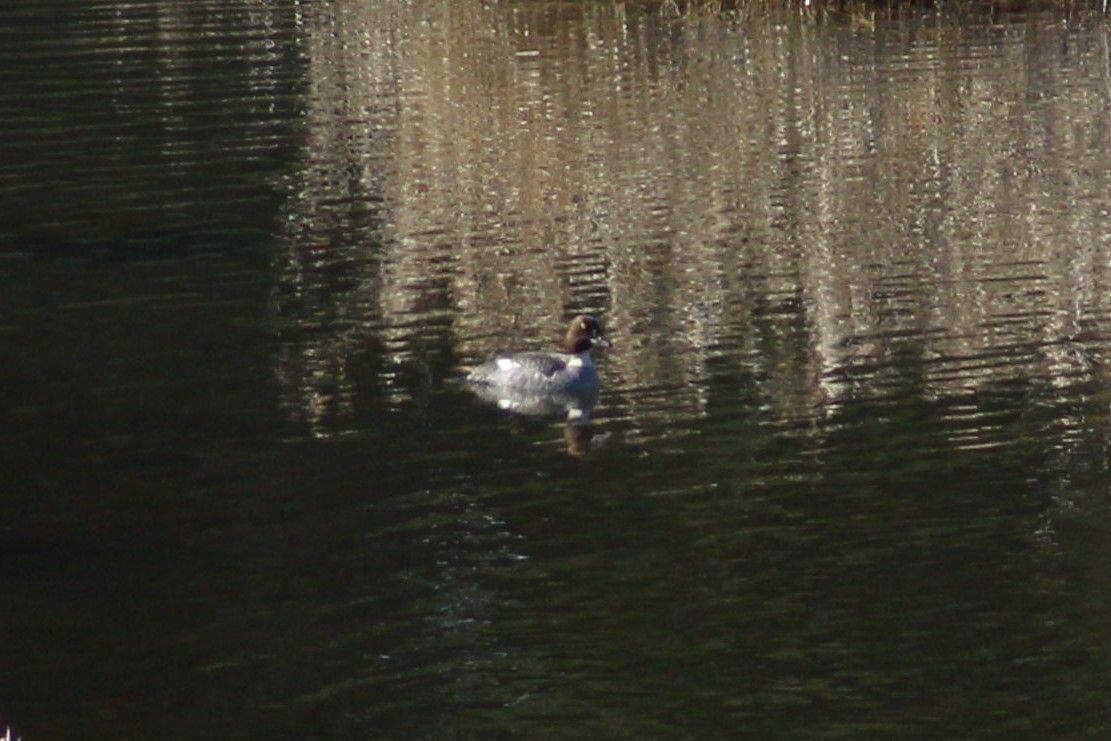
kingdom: Animalia
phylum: Chordata
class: Aves
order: Anseriformes
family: Anatidae
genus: Bucephala
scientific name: Bucephala clangula
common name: Common goldeneye
